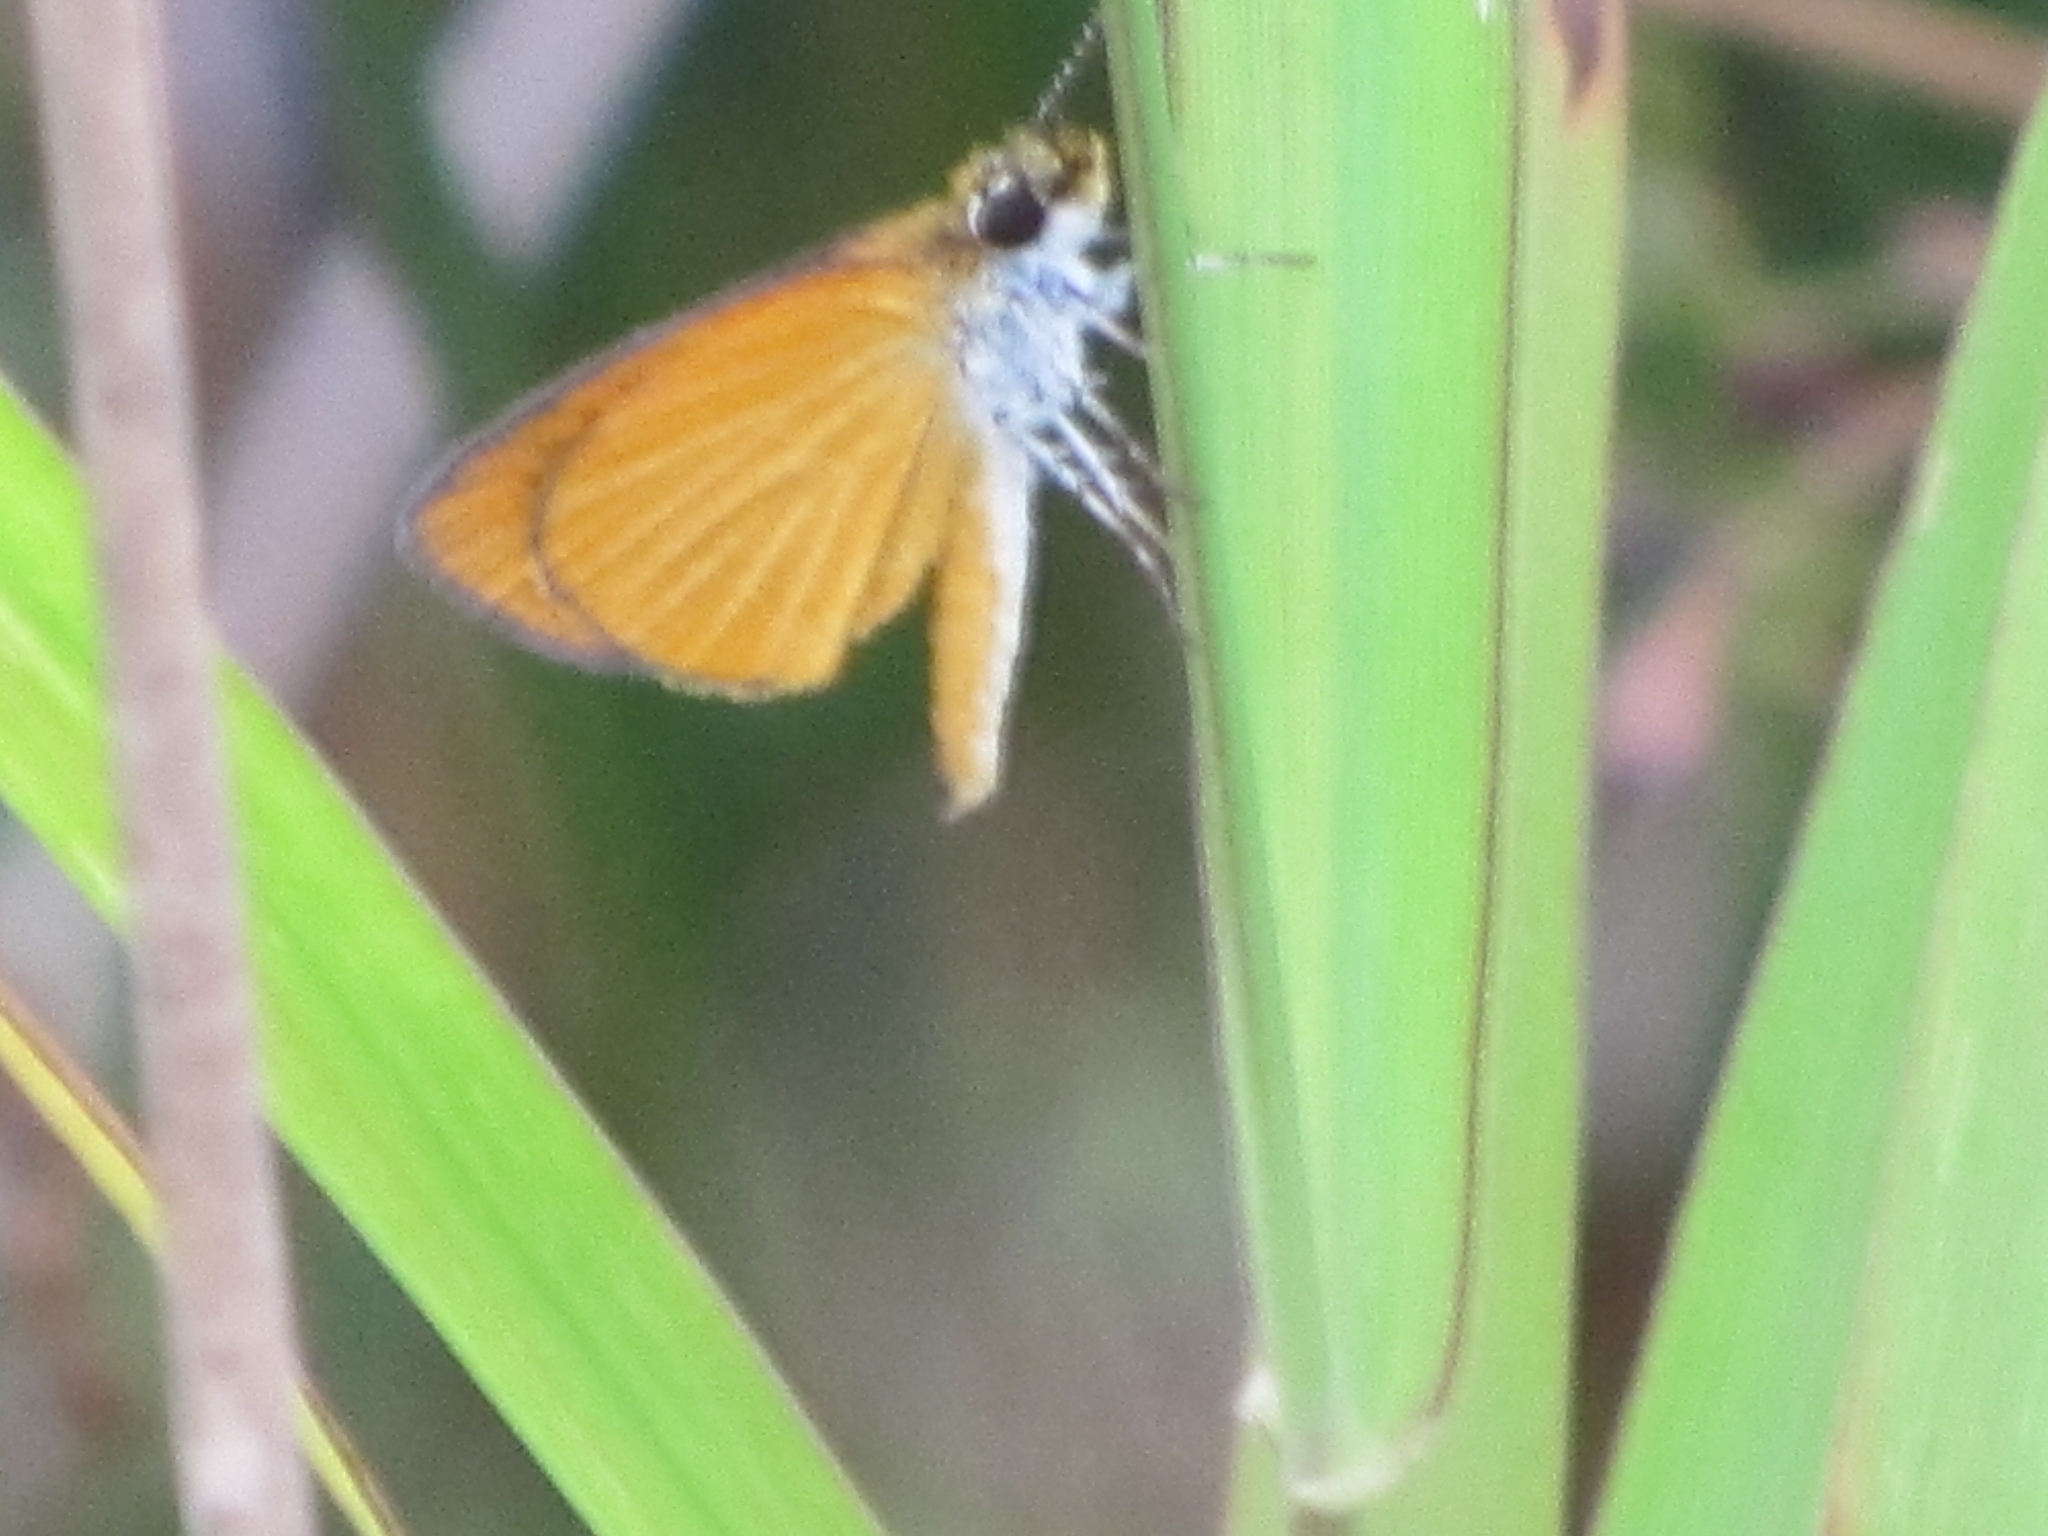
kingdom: Animalia
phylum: Arthropoda
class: Insecta
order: Lepidoptera
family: Hesperiidae
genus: Ancyloxypha
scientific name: Ancyloxypha numitor
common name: Least skipper
